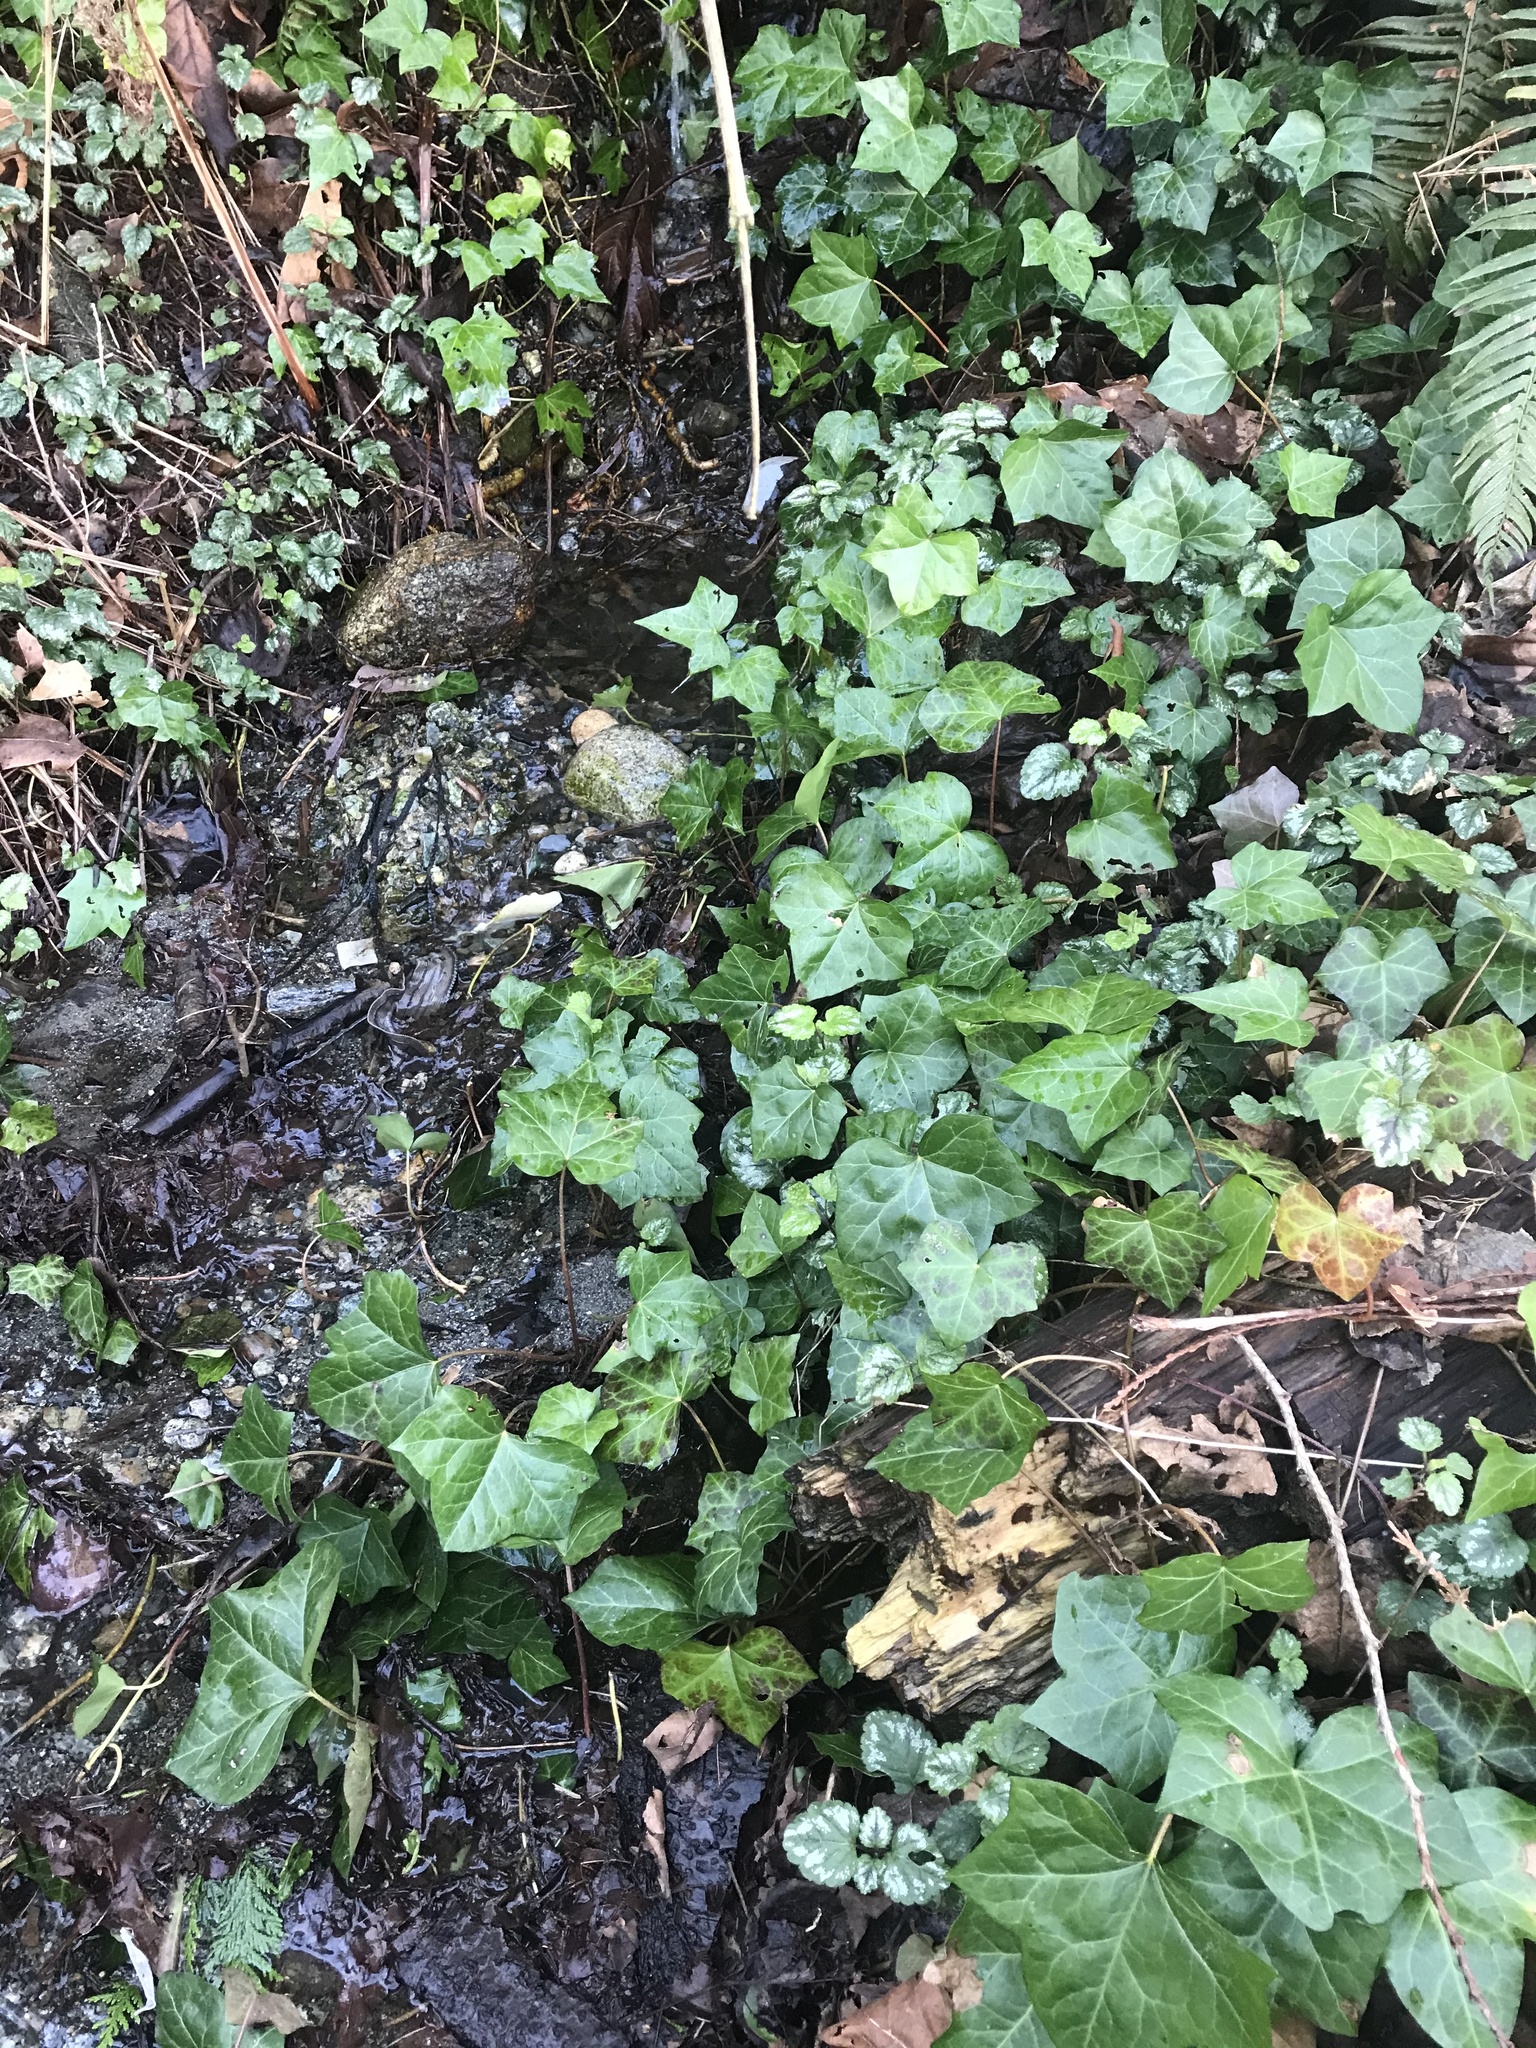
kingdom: Plantae
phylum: Tracheophyta
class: Magnoliopsida
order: Apiales
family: Araliaceae
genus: Hedera
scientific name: Hedera helix
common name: Ivy
